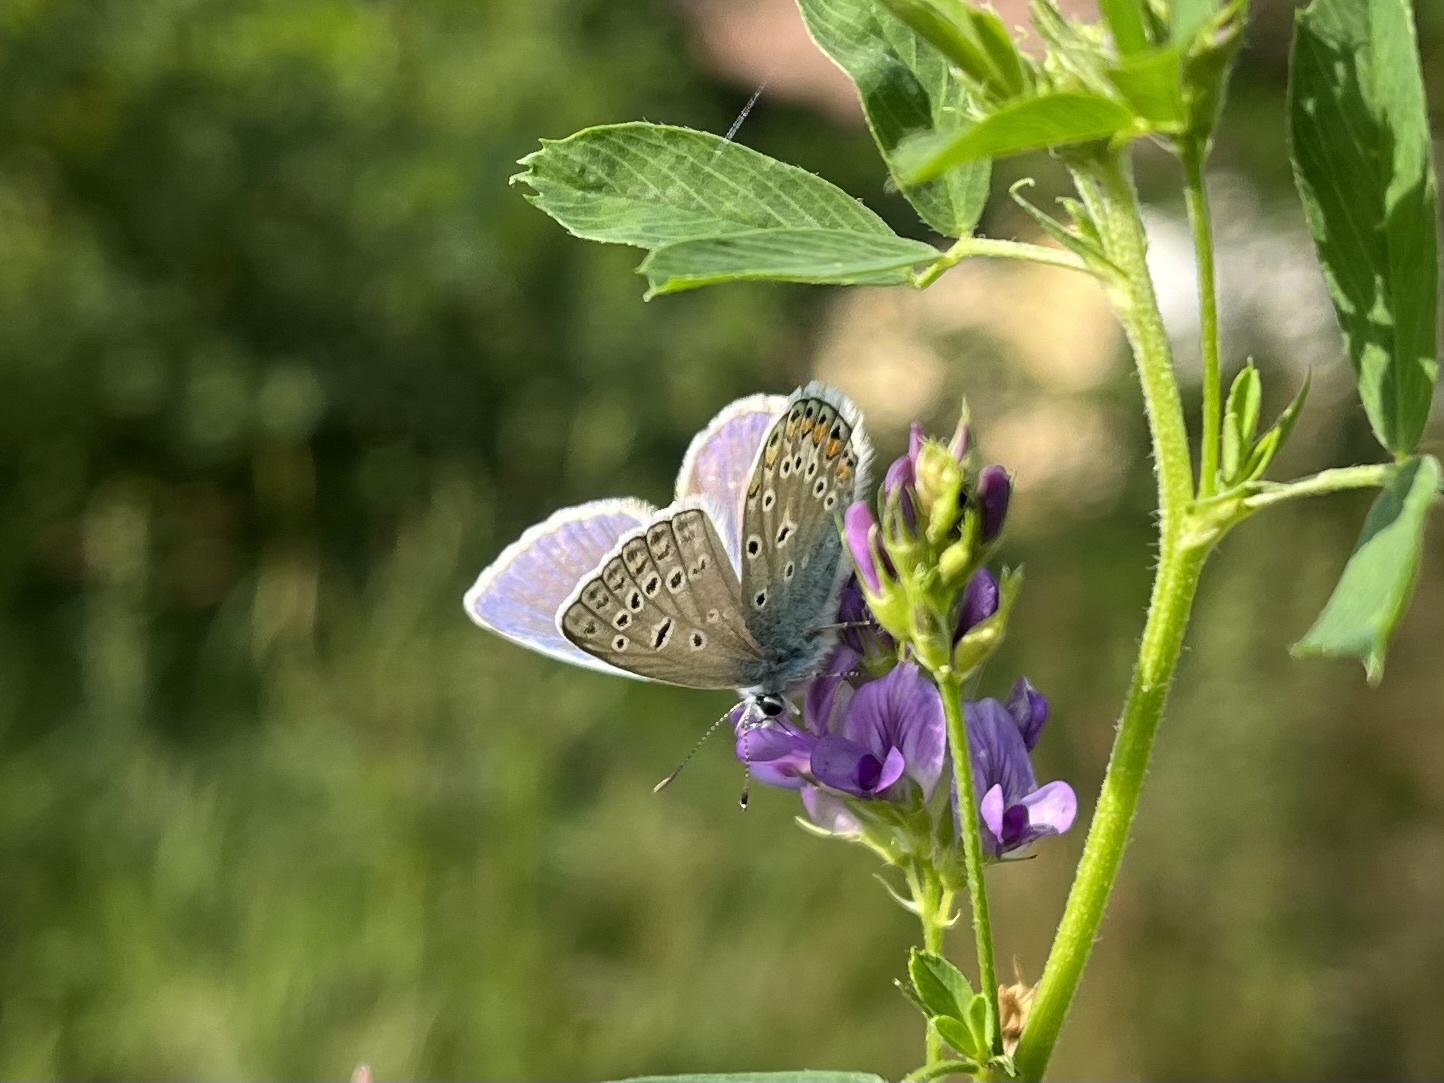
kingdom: Animalia
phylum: Arthropoda
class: Insecta
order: Lepidoptera
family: Lycaenidae
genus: Polyommatus
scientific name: Polyommatus icarus
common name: Common blue
